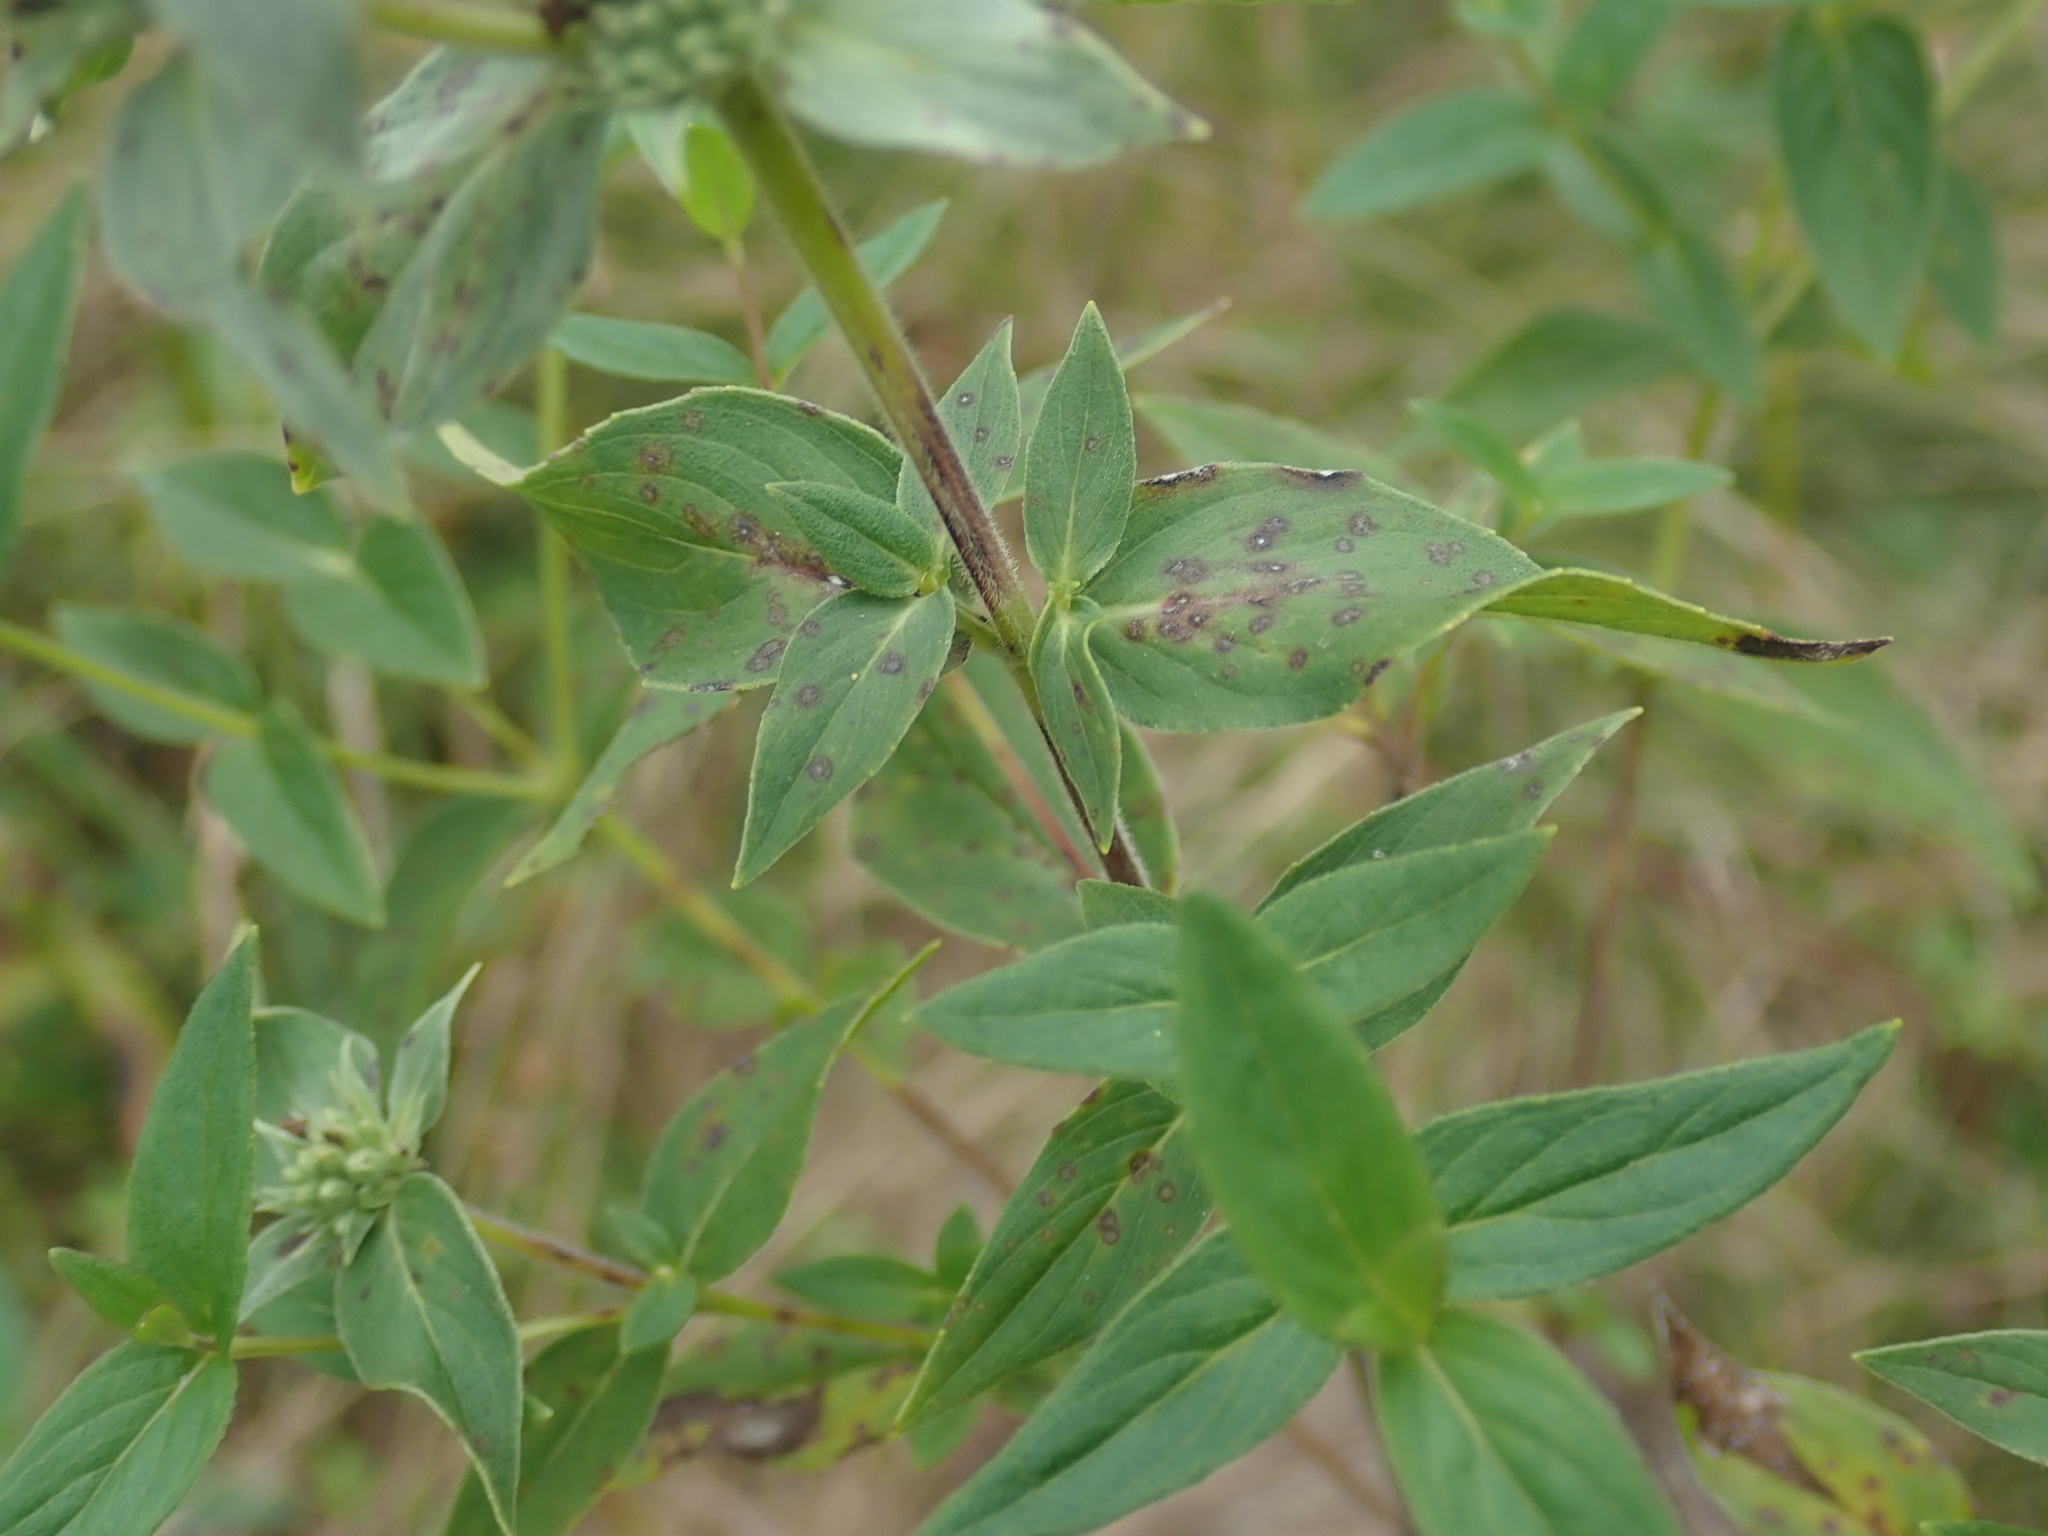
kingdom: Plantae
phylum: Tracheophyta
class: Magnoliopsida
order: Lamiales
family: Lamiaceae
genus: Pycnanthemum
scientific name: Pycnanthemum muticum
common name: Blunt mountain-mint
